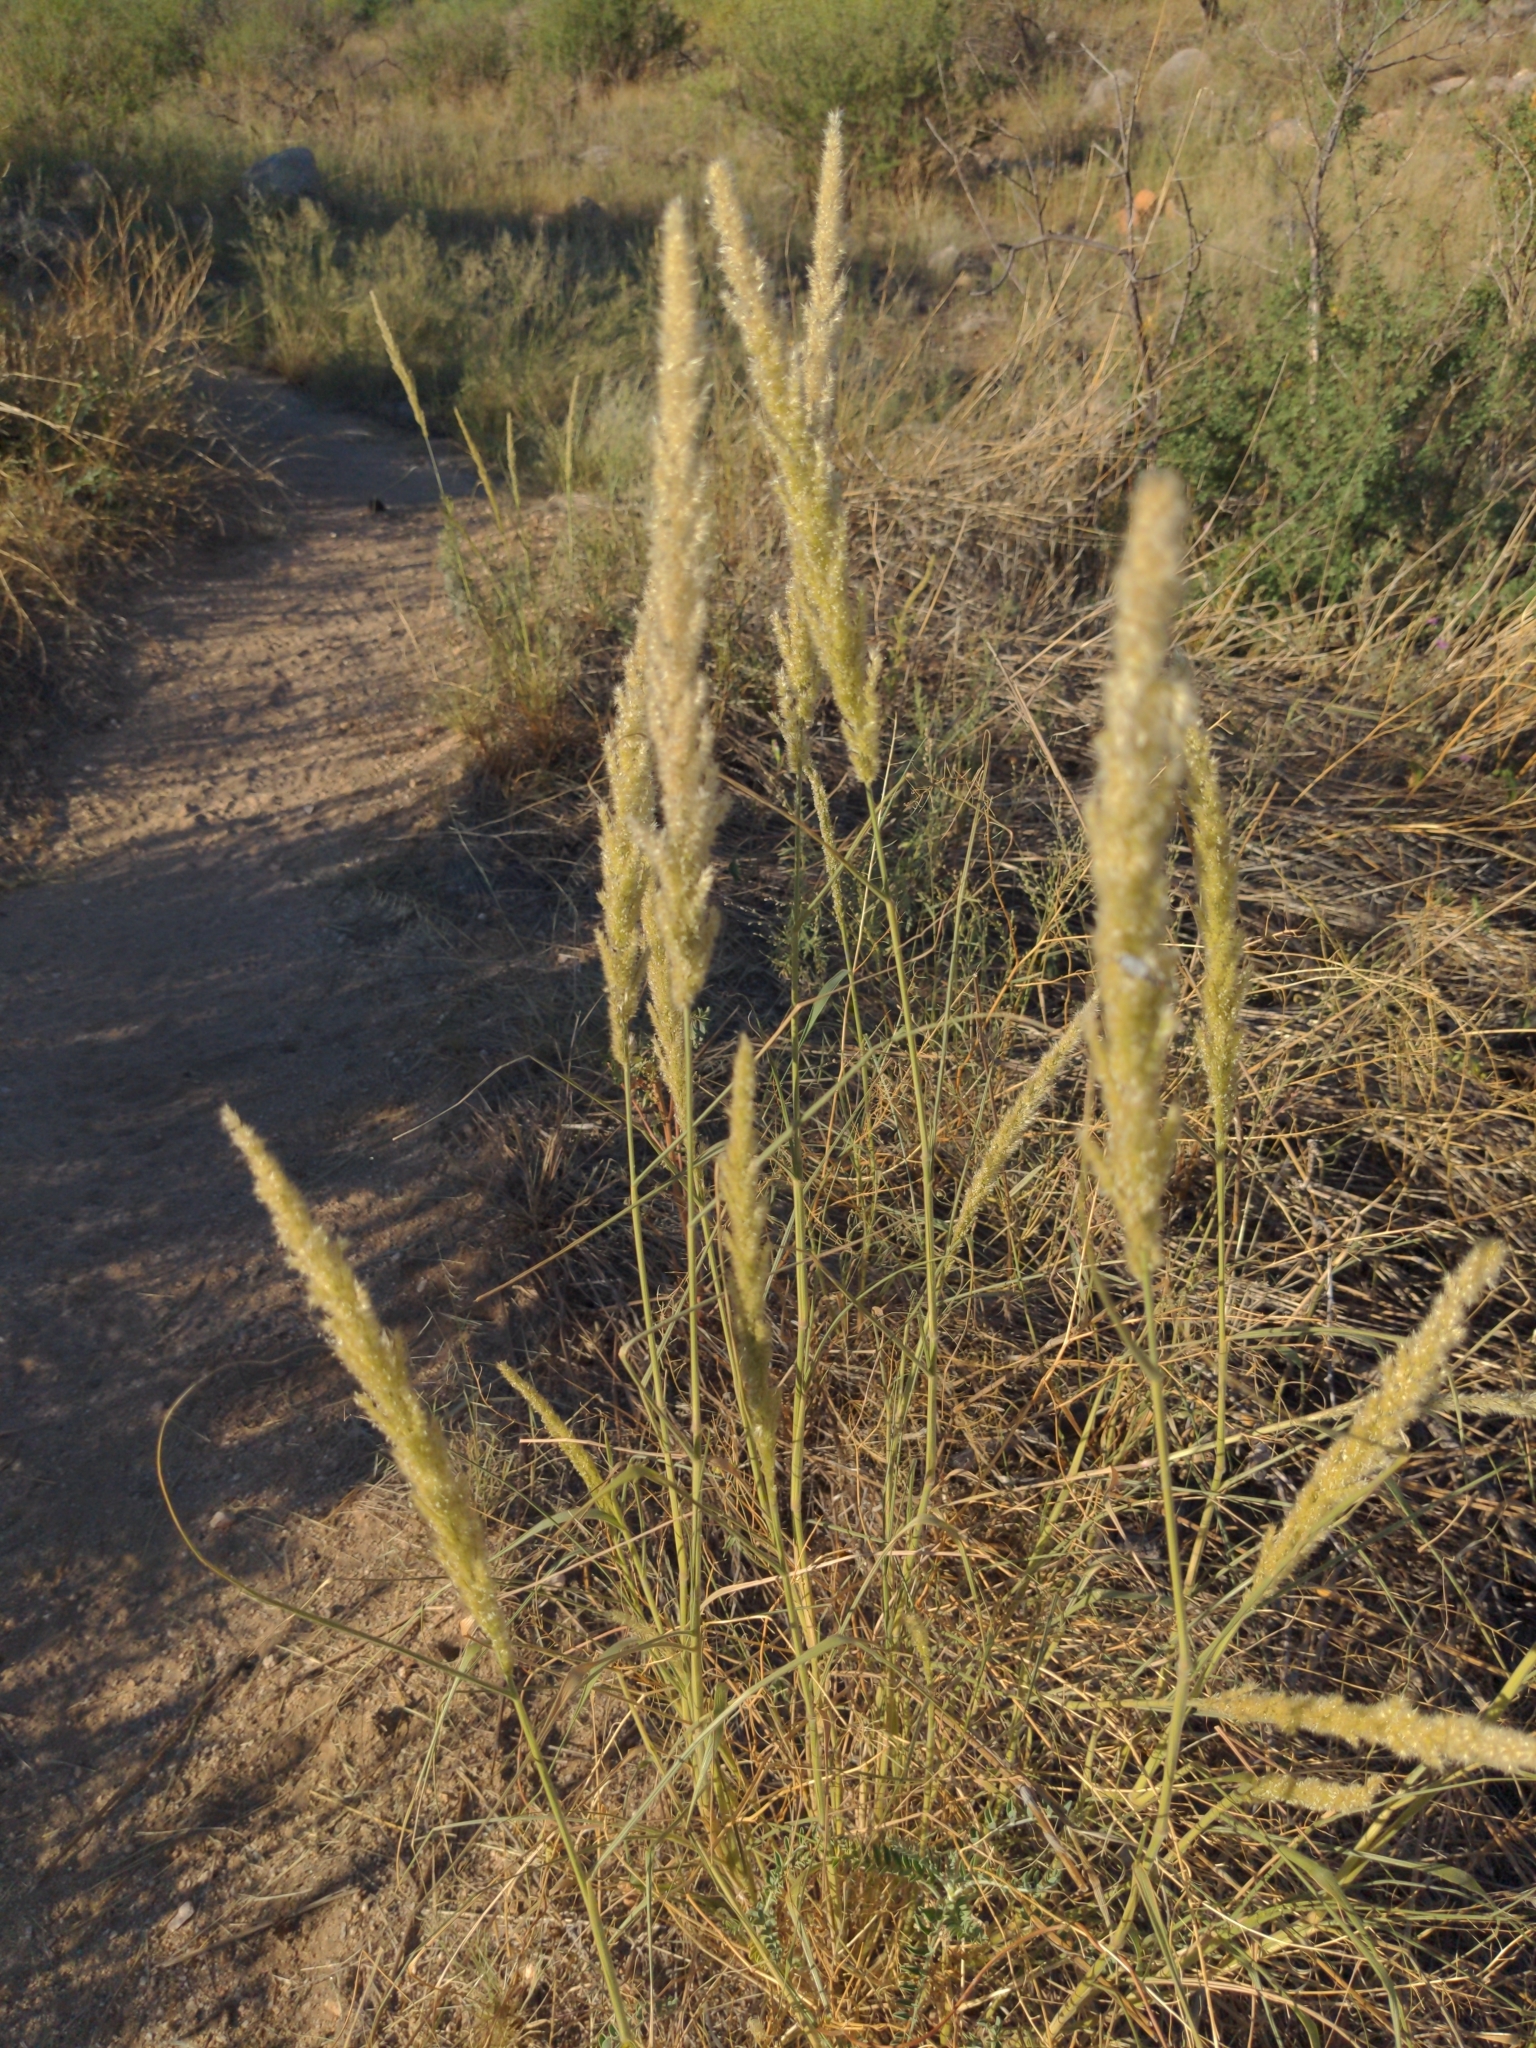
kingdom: Plantae
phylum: Tracheophyta
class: Liliopsida
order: Poales
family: Poaceae
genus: Enneapogon
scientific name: Enneapogon cenchroides
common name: Soft feather pappusgrass
